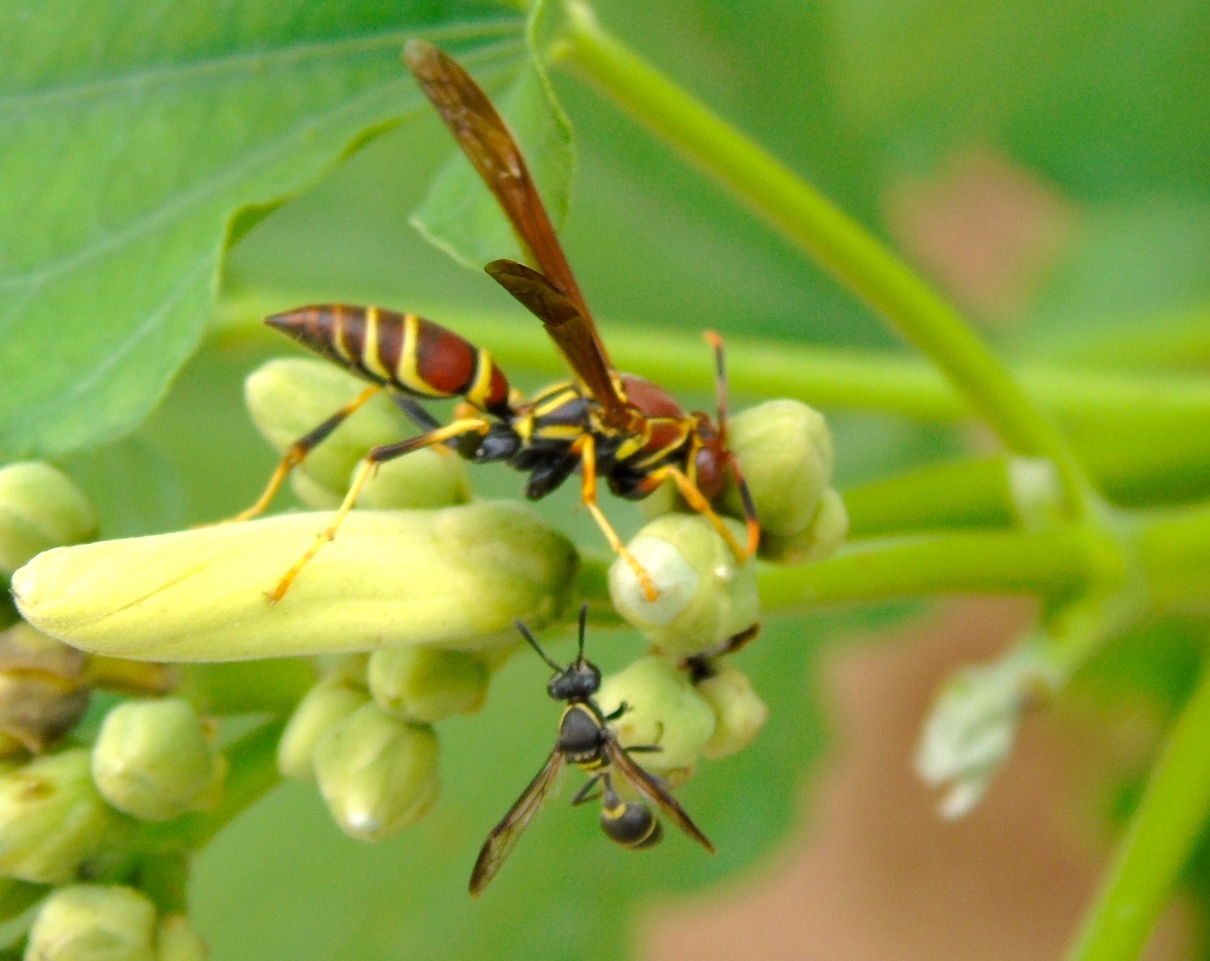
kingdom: Animalia
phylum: Arthropoda
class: Insecta
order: Hymenoptera
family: Eumenidae
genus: Polistes
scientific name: Polistes instabilis
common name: Unstable paper wasp
